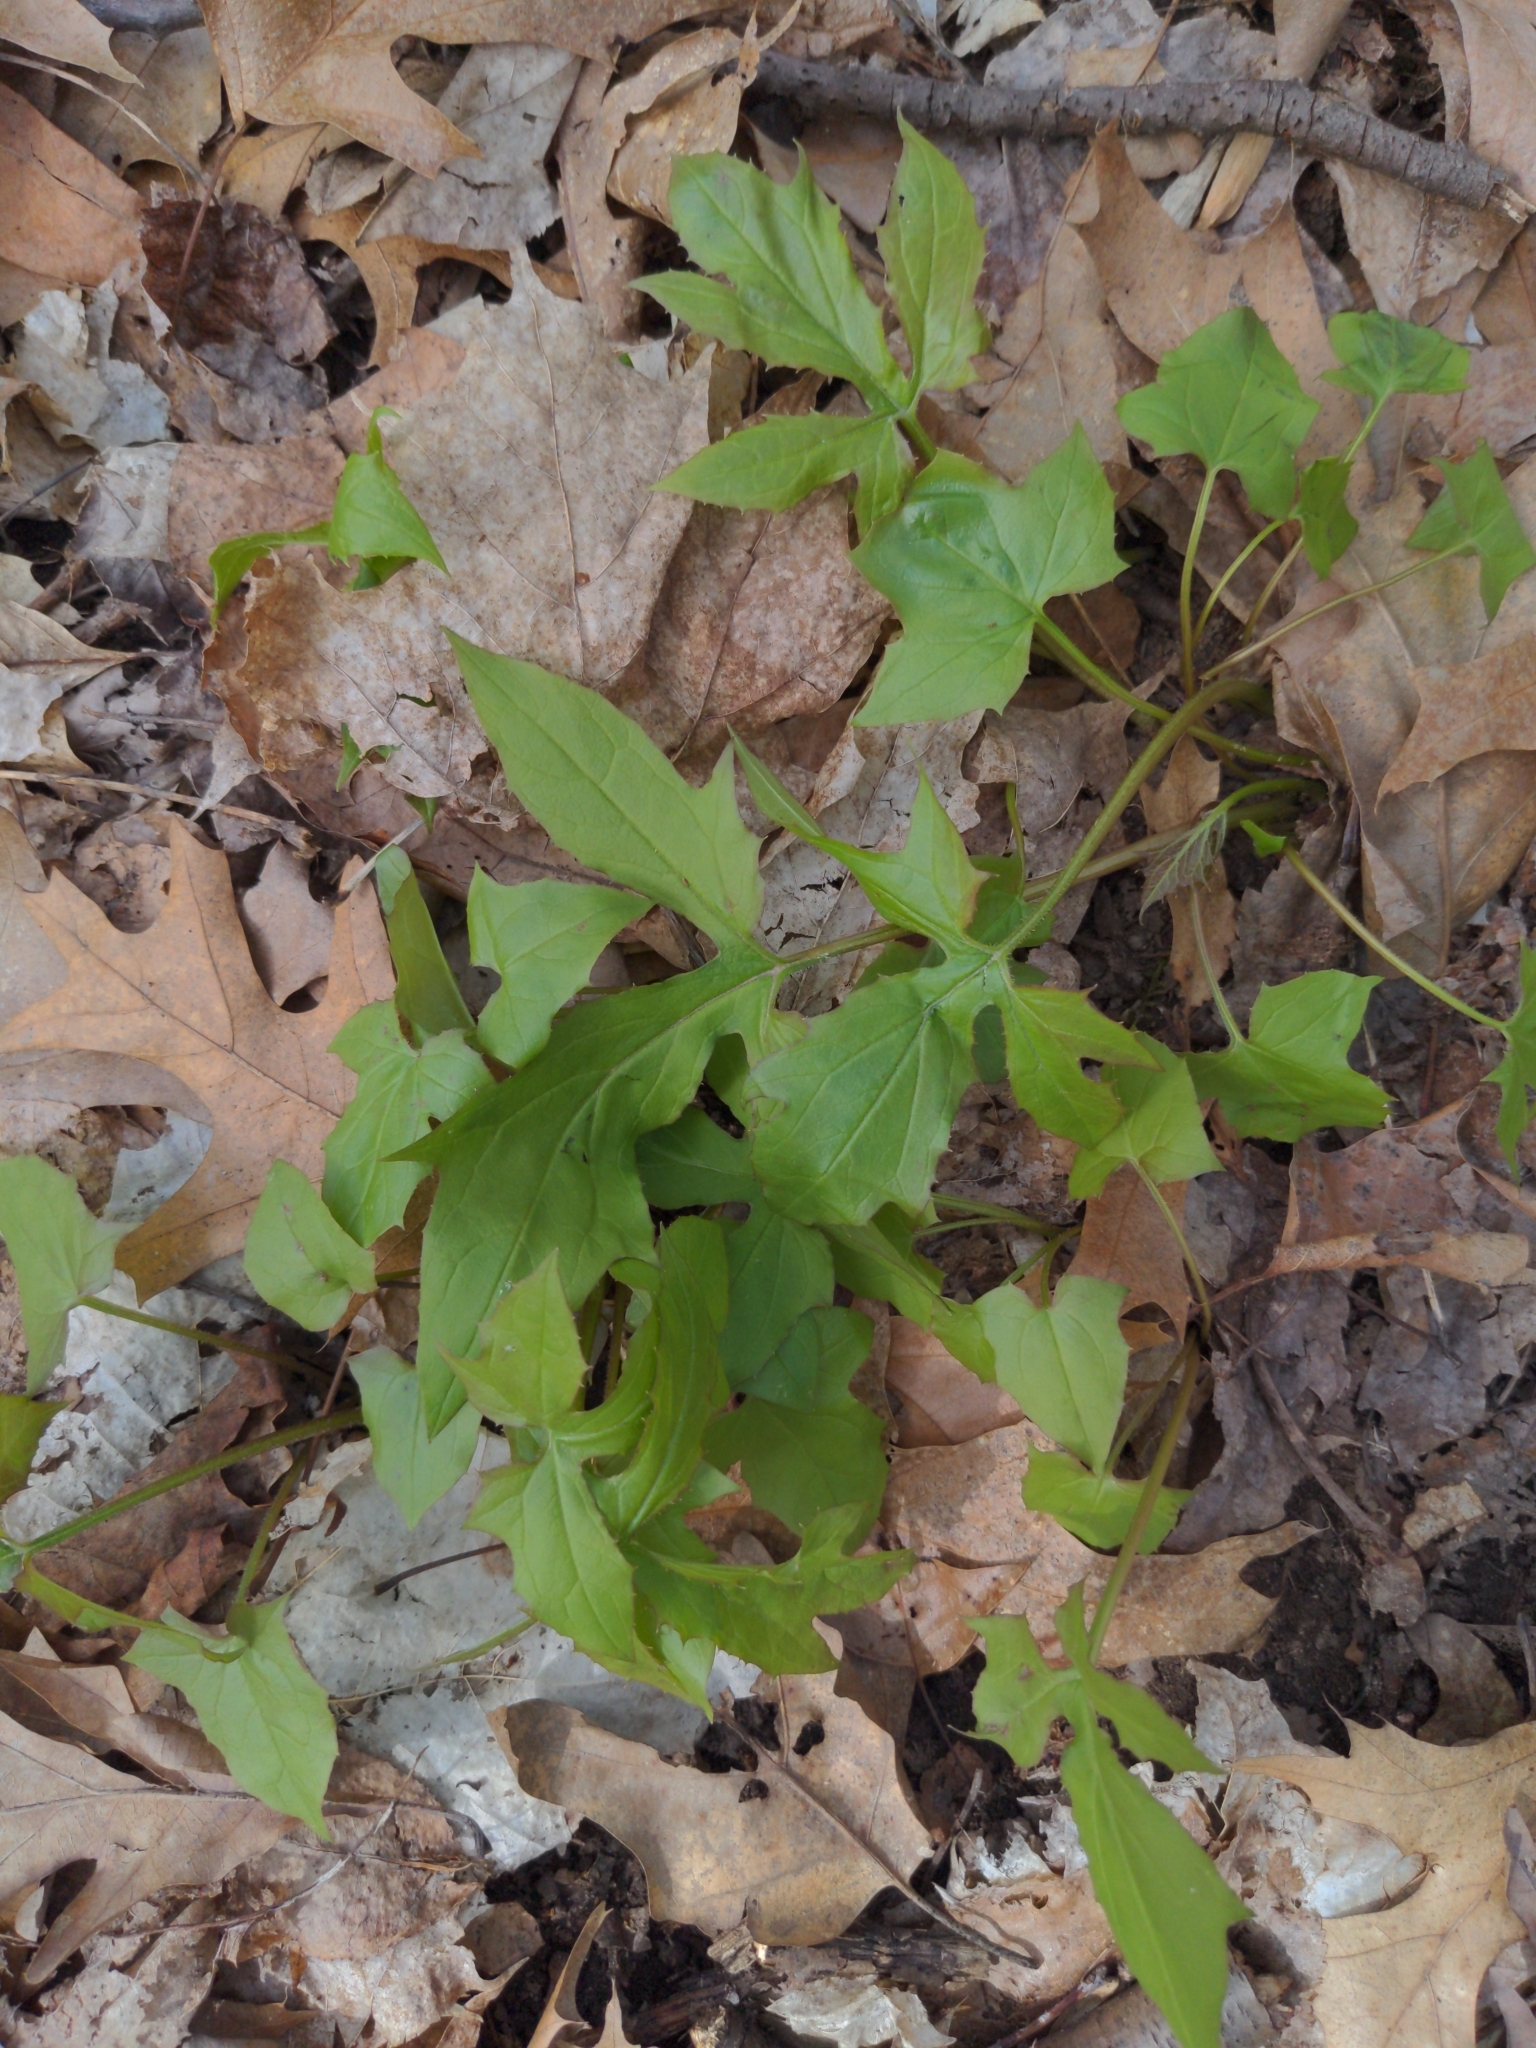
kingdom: Plantae
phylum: Tracheophyta
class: Magnoliopsida
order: Asterales
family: Asteraceae
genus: Nabalus
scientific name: Nabalus
